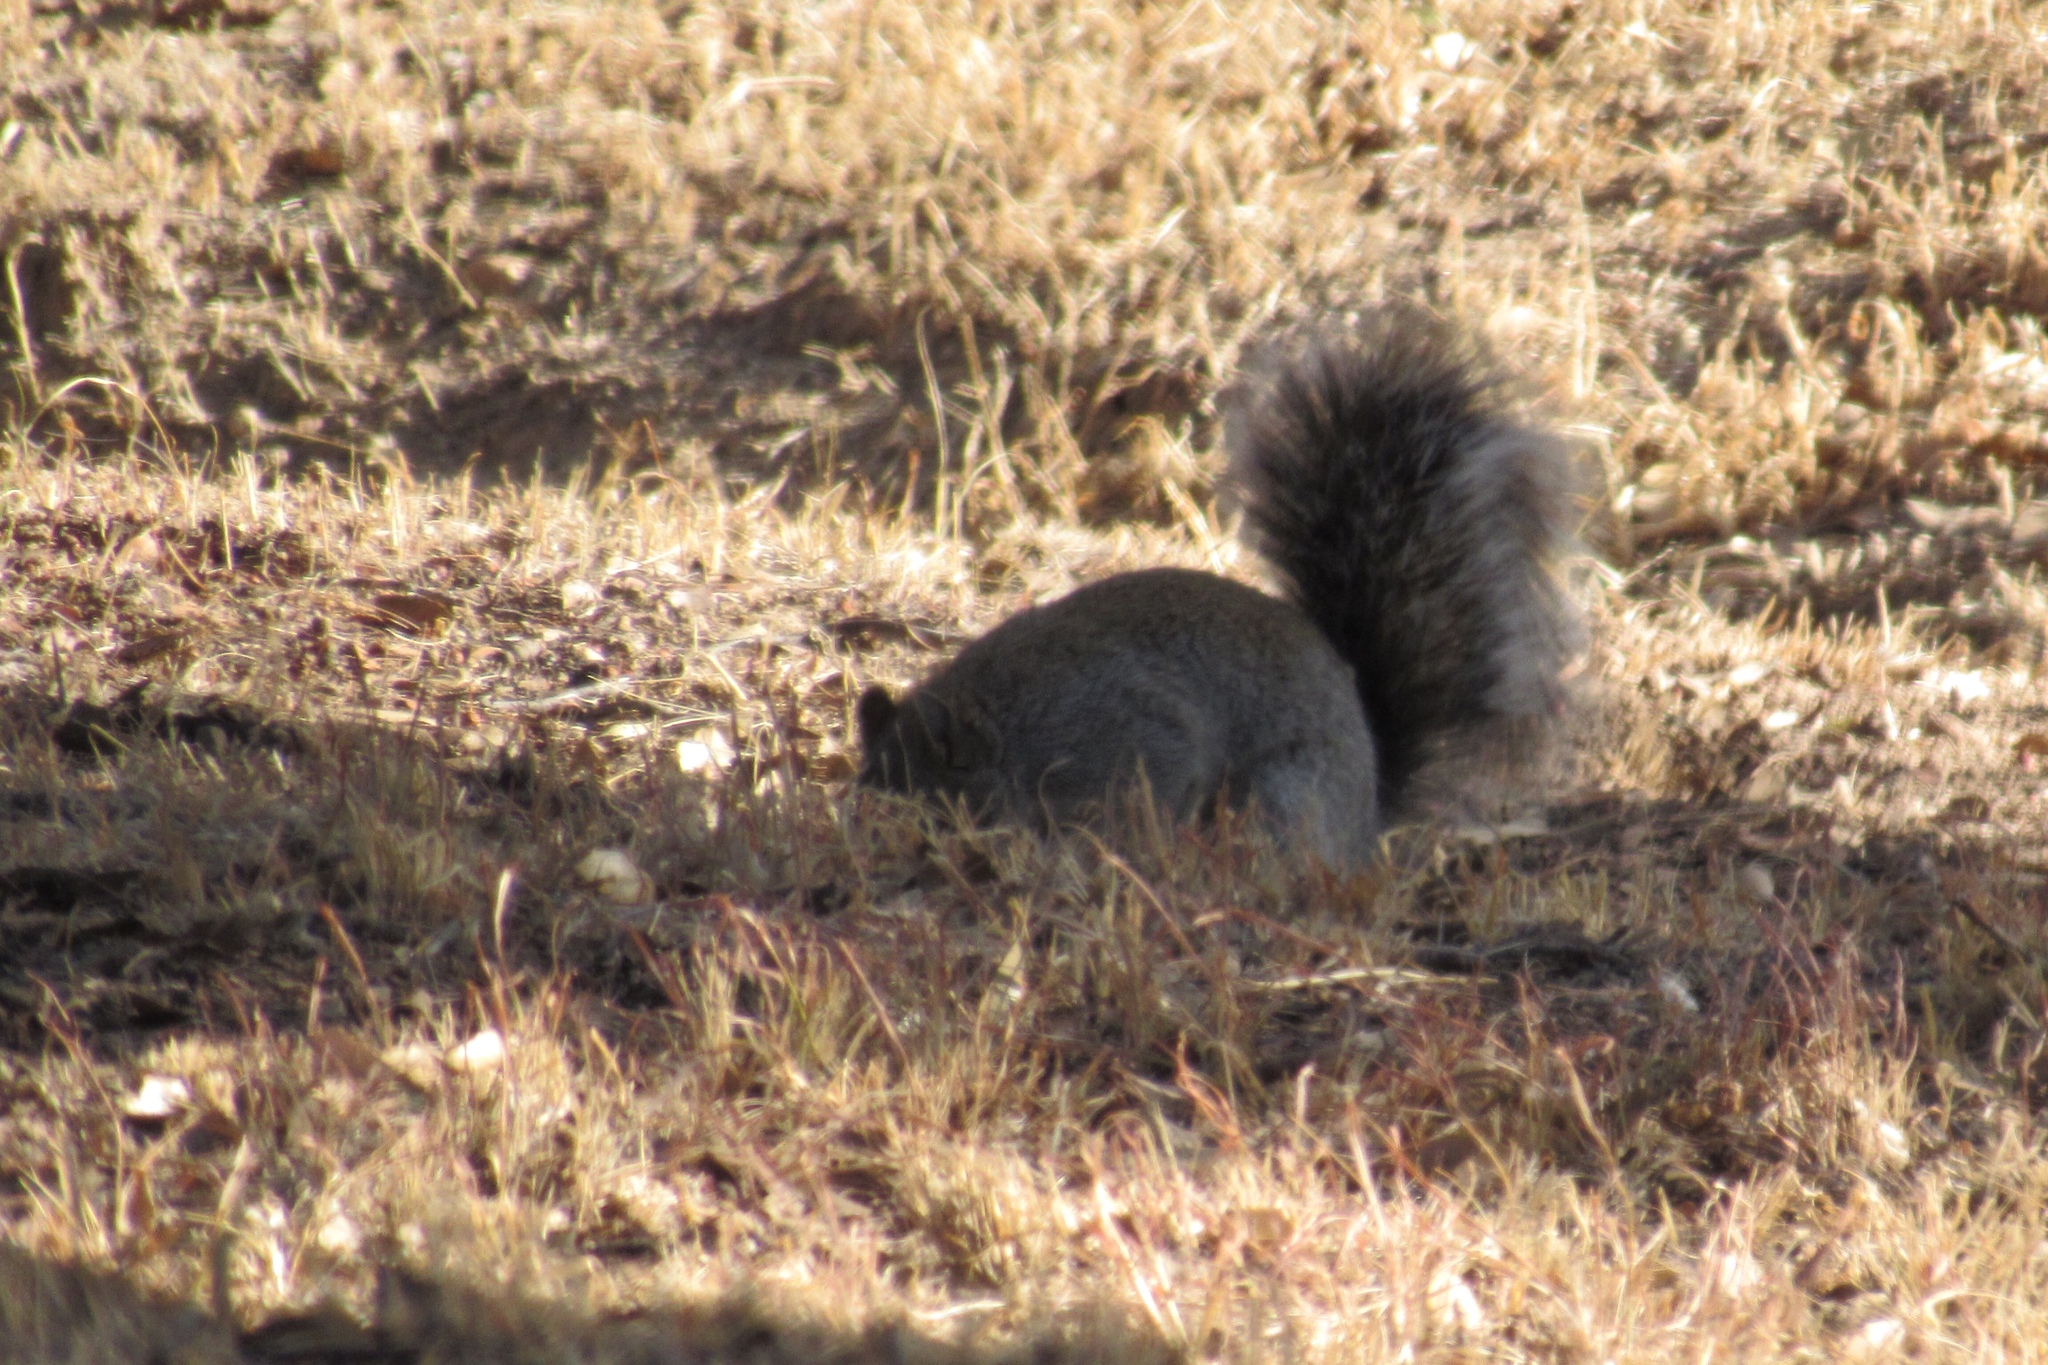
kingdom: Animalia
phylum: Chordata
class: Mammalia
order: Rodentia
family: Sciuridae
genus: Sciurus
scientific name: Sciurus arizonensis
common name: Arizona gray squirrel
